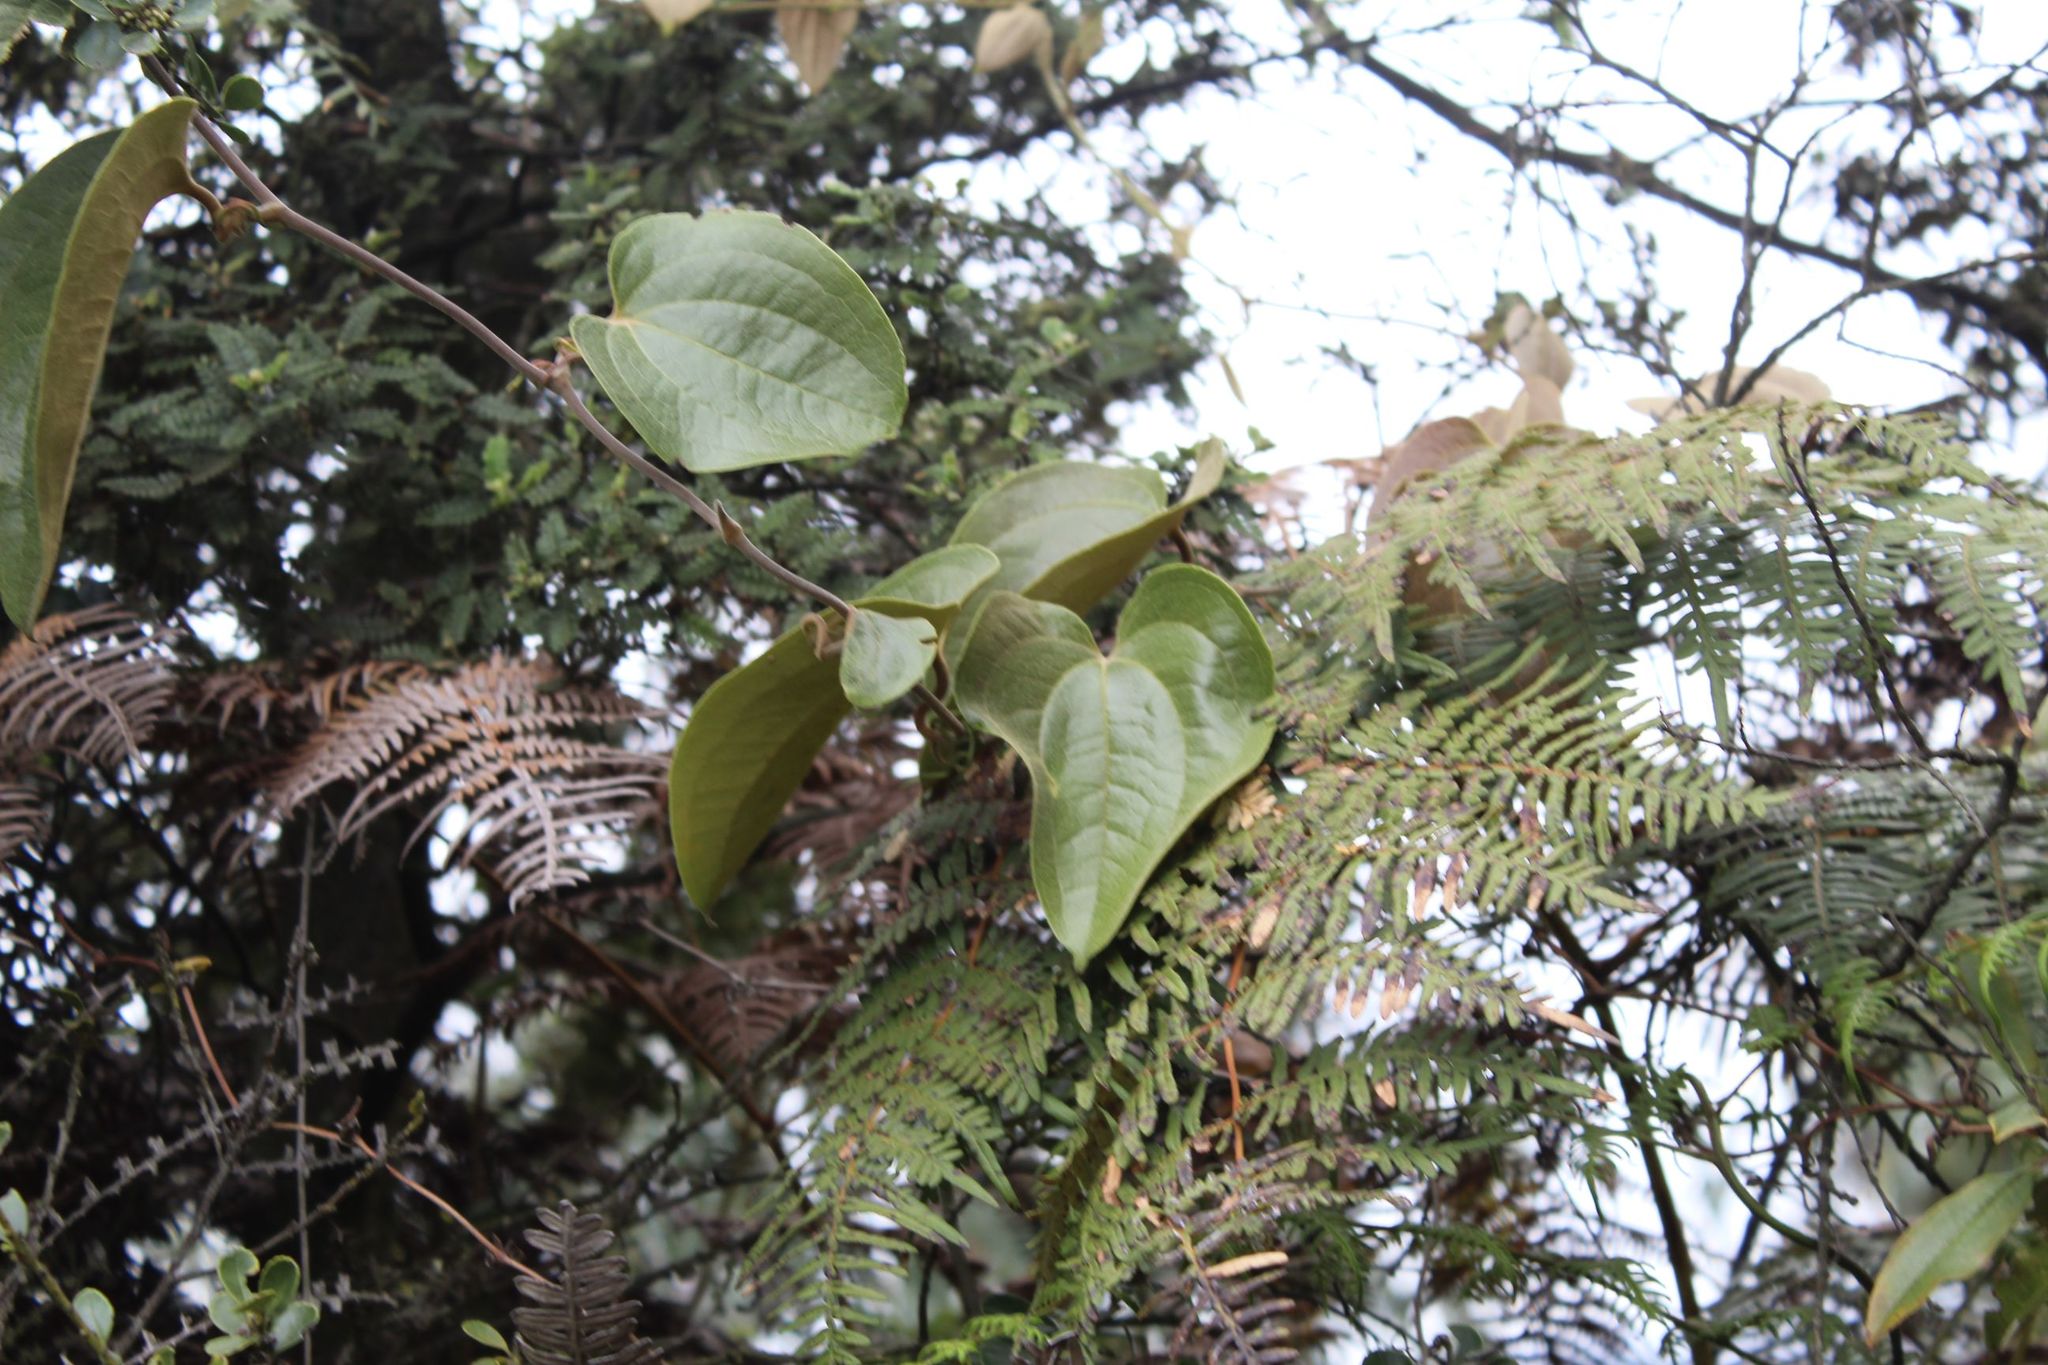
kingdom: Plantae
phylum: Tracheophyta
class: Liliopsida
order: Liliales
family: Smilacaceae
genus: Smilax
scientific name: Smilax tomentosa
